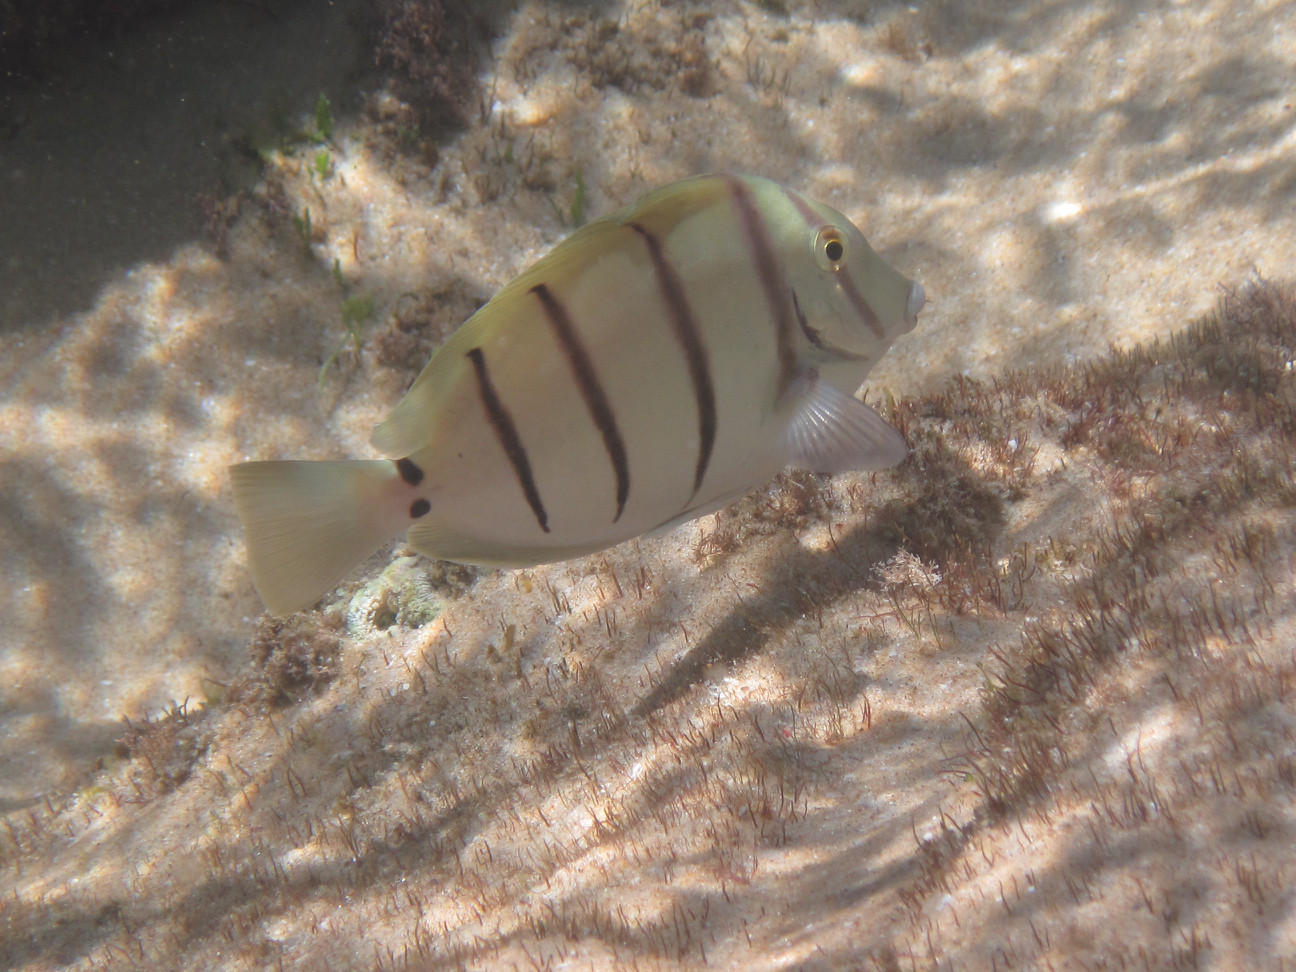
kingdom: Animalia
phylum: Chordata
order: Perciformes
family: Acanthuridae
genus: Acanthurus
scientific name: Acanthurus triostegus
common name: Convict surgeonfish
